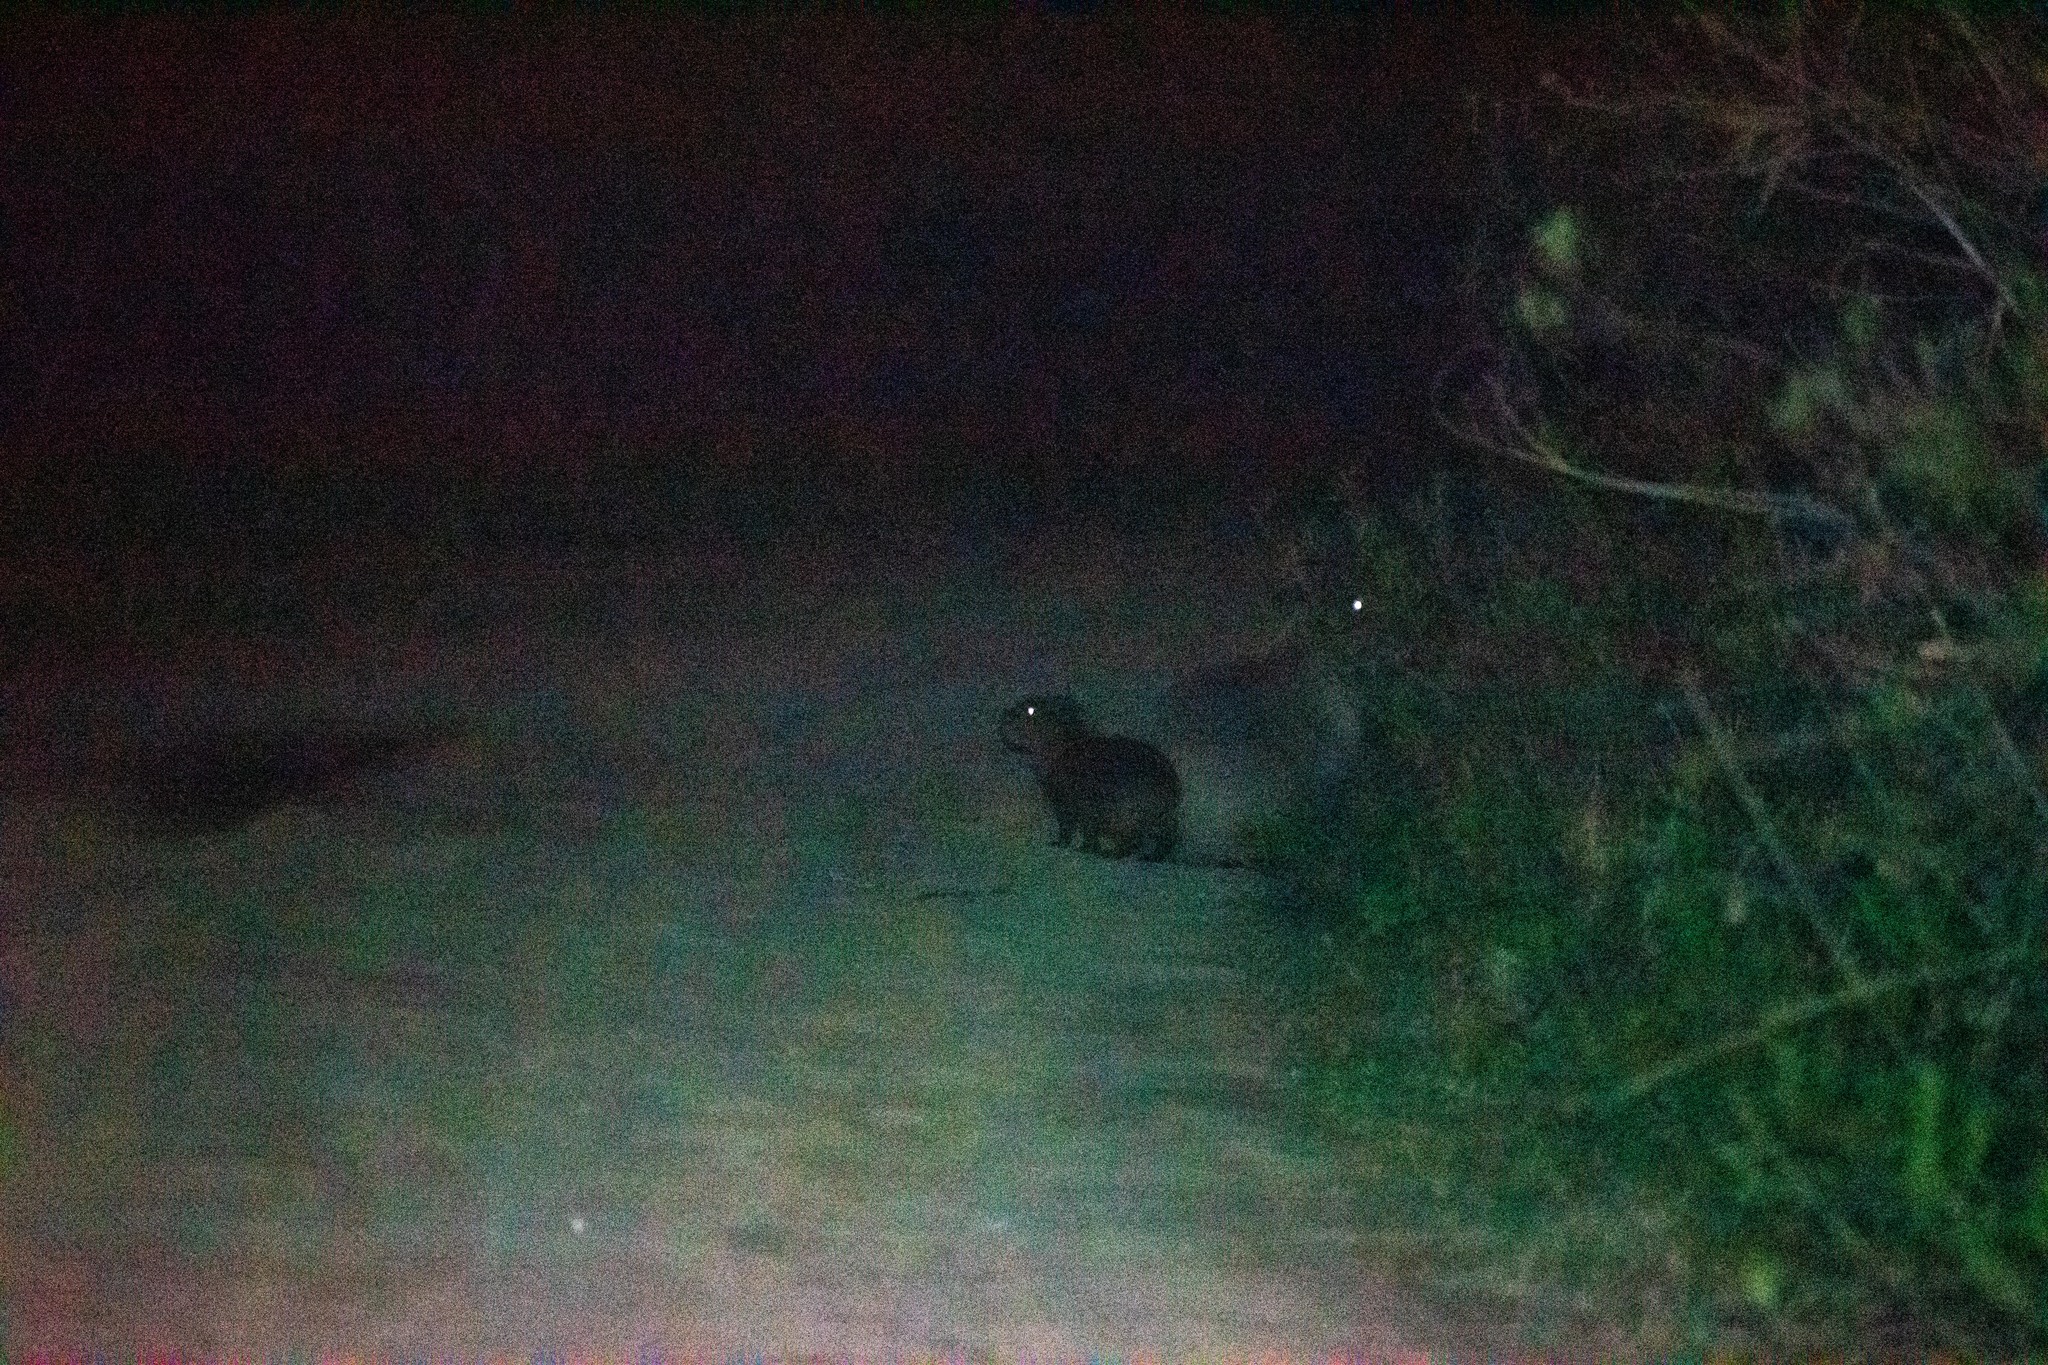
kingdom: Animalia
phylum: Chordata
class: Mammalia
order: Rodentia
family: Caviidae
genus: Hydrochoerus
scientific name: Hydrochoerus hydrochaeris
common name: Capybara
